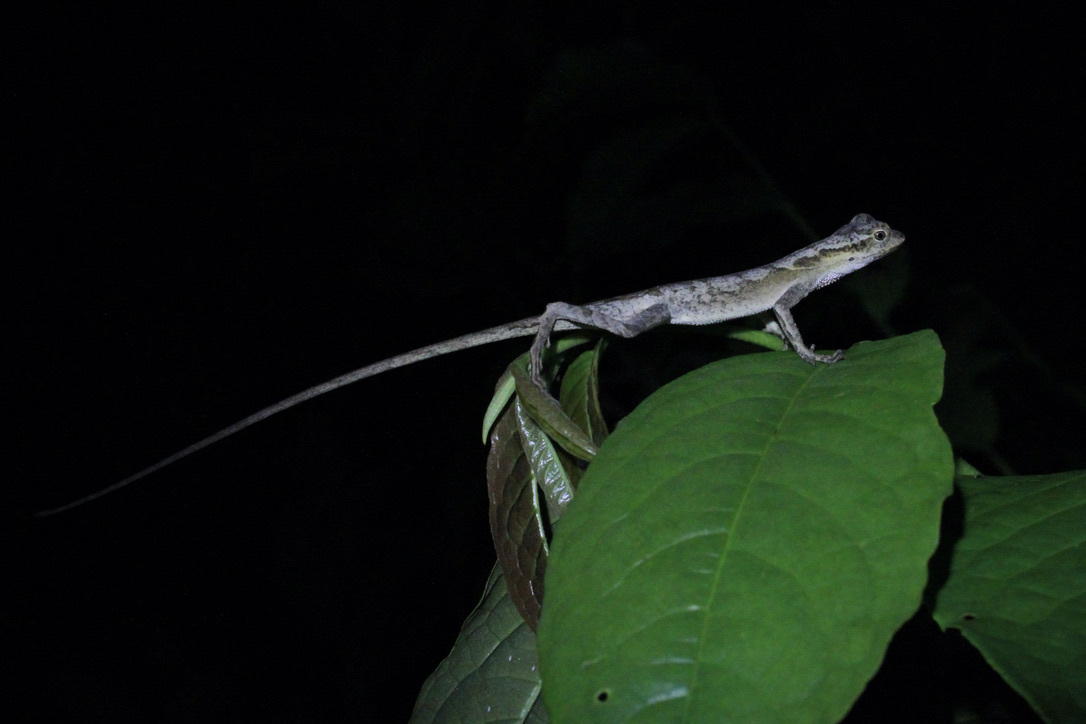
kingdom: Animalia
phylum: Chordata
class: Squamata
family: Dactyloidae
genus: Anolis
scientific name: Anolis planiceps
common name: Goldenscale anole
